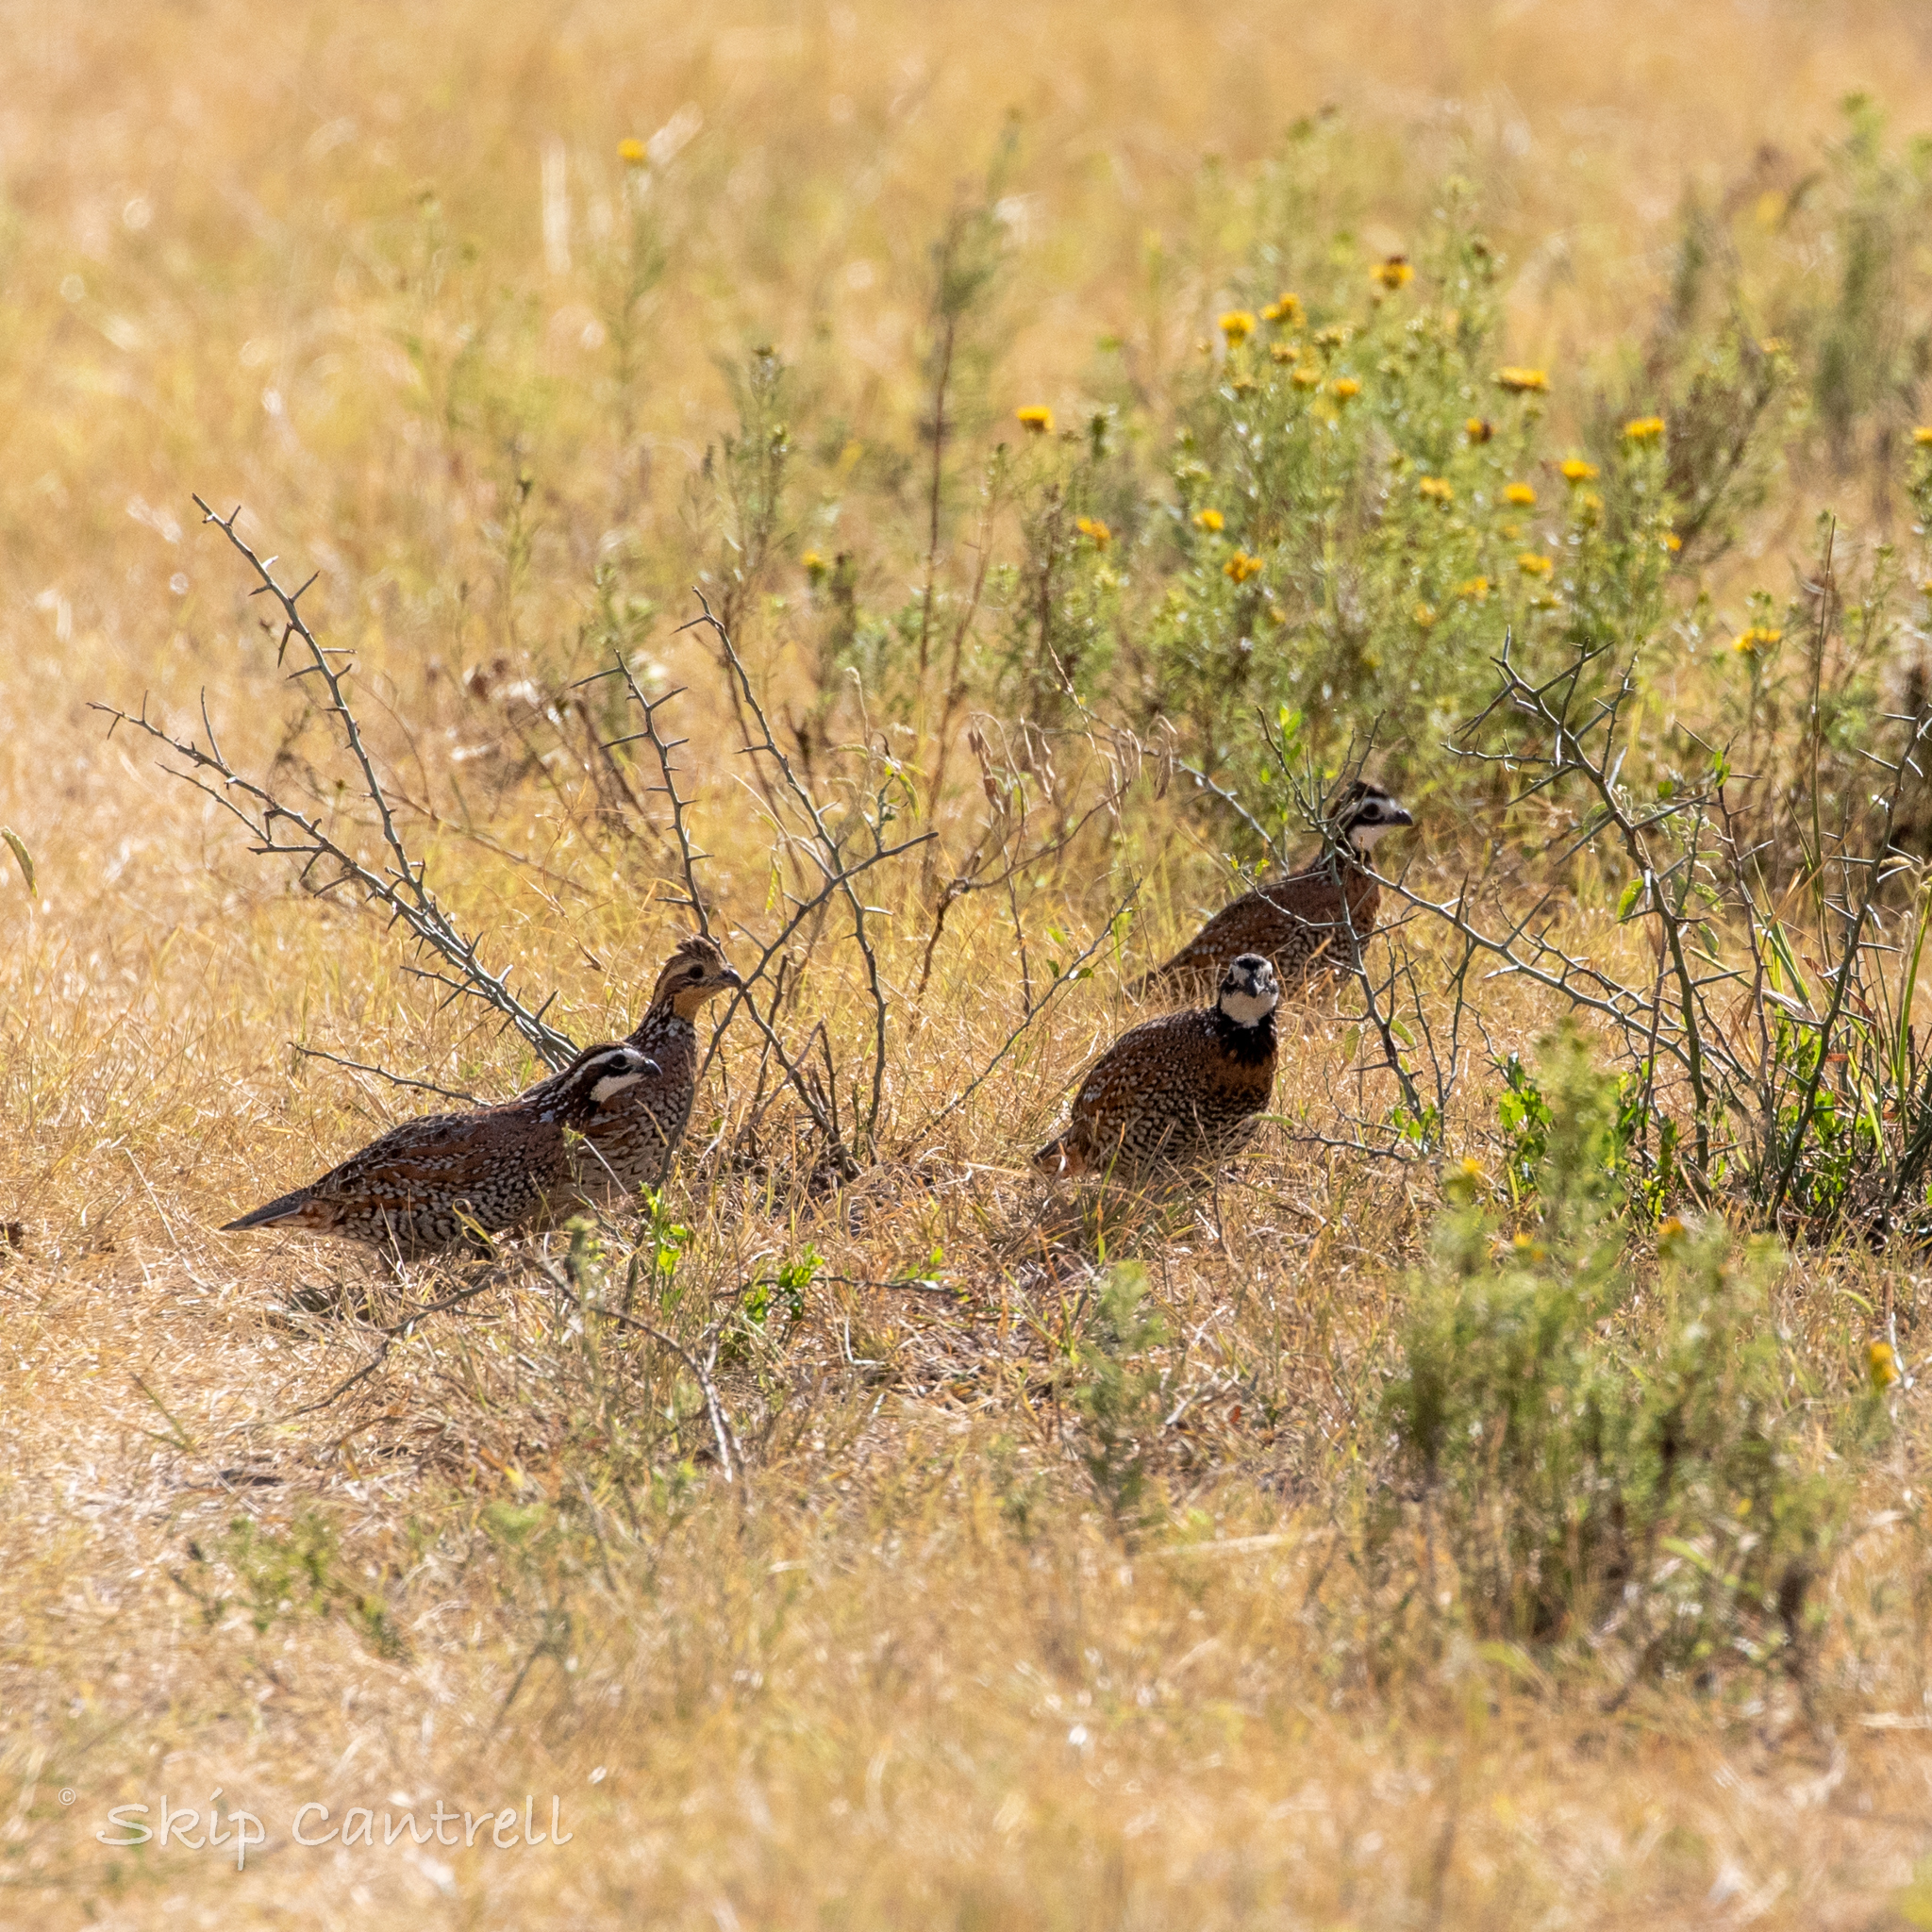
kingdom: Animalia
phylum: Chordata
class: Aves
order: Galliformes
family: Odontophoridae
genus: Colinus
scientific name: Colinus virginianus
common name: Northern bobwhite
